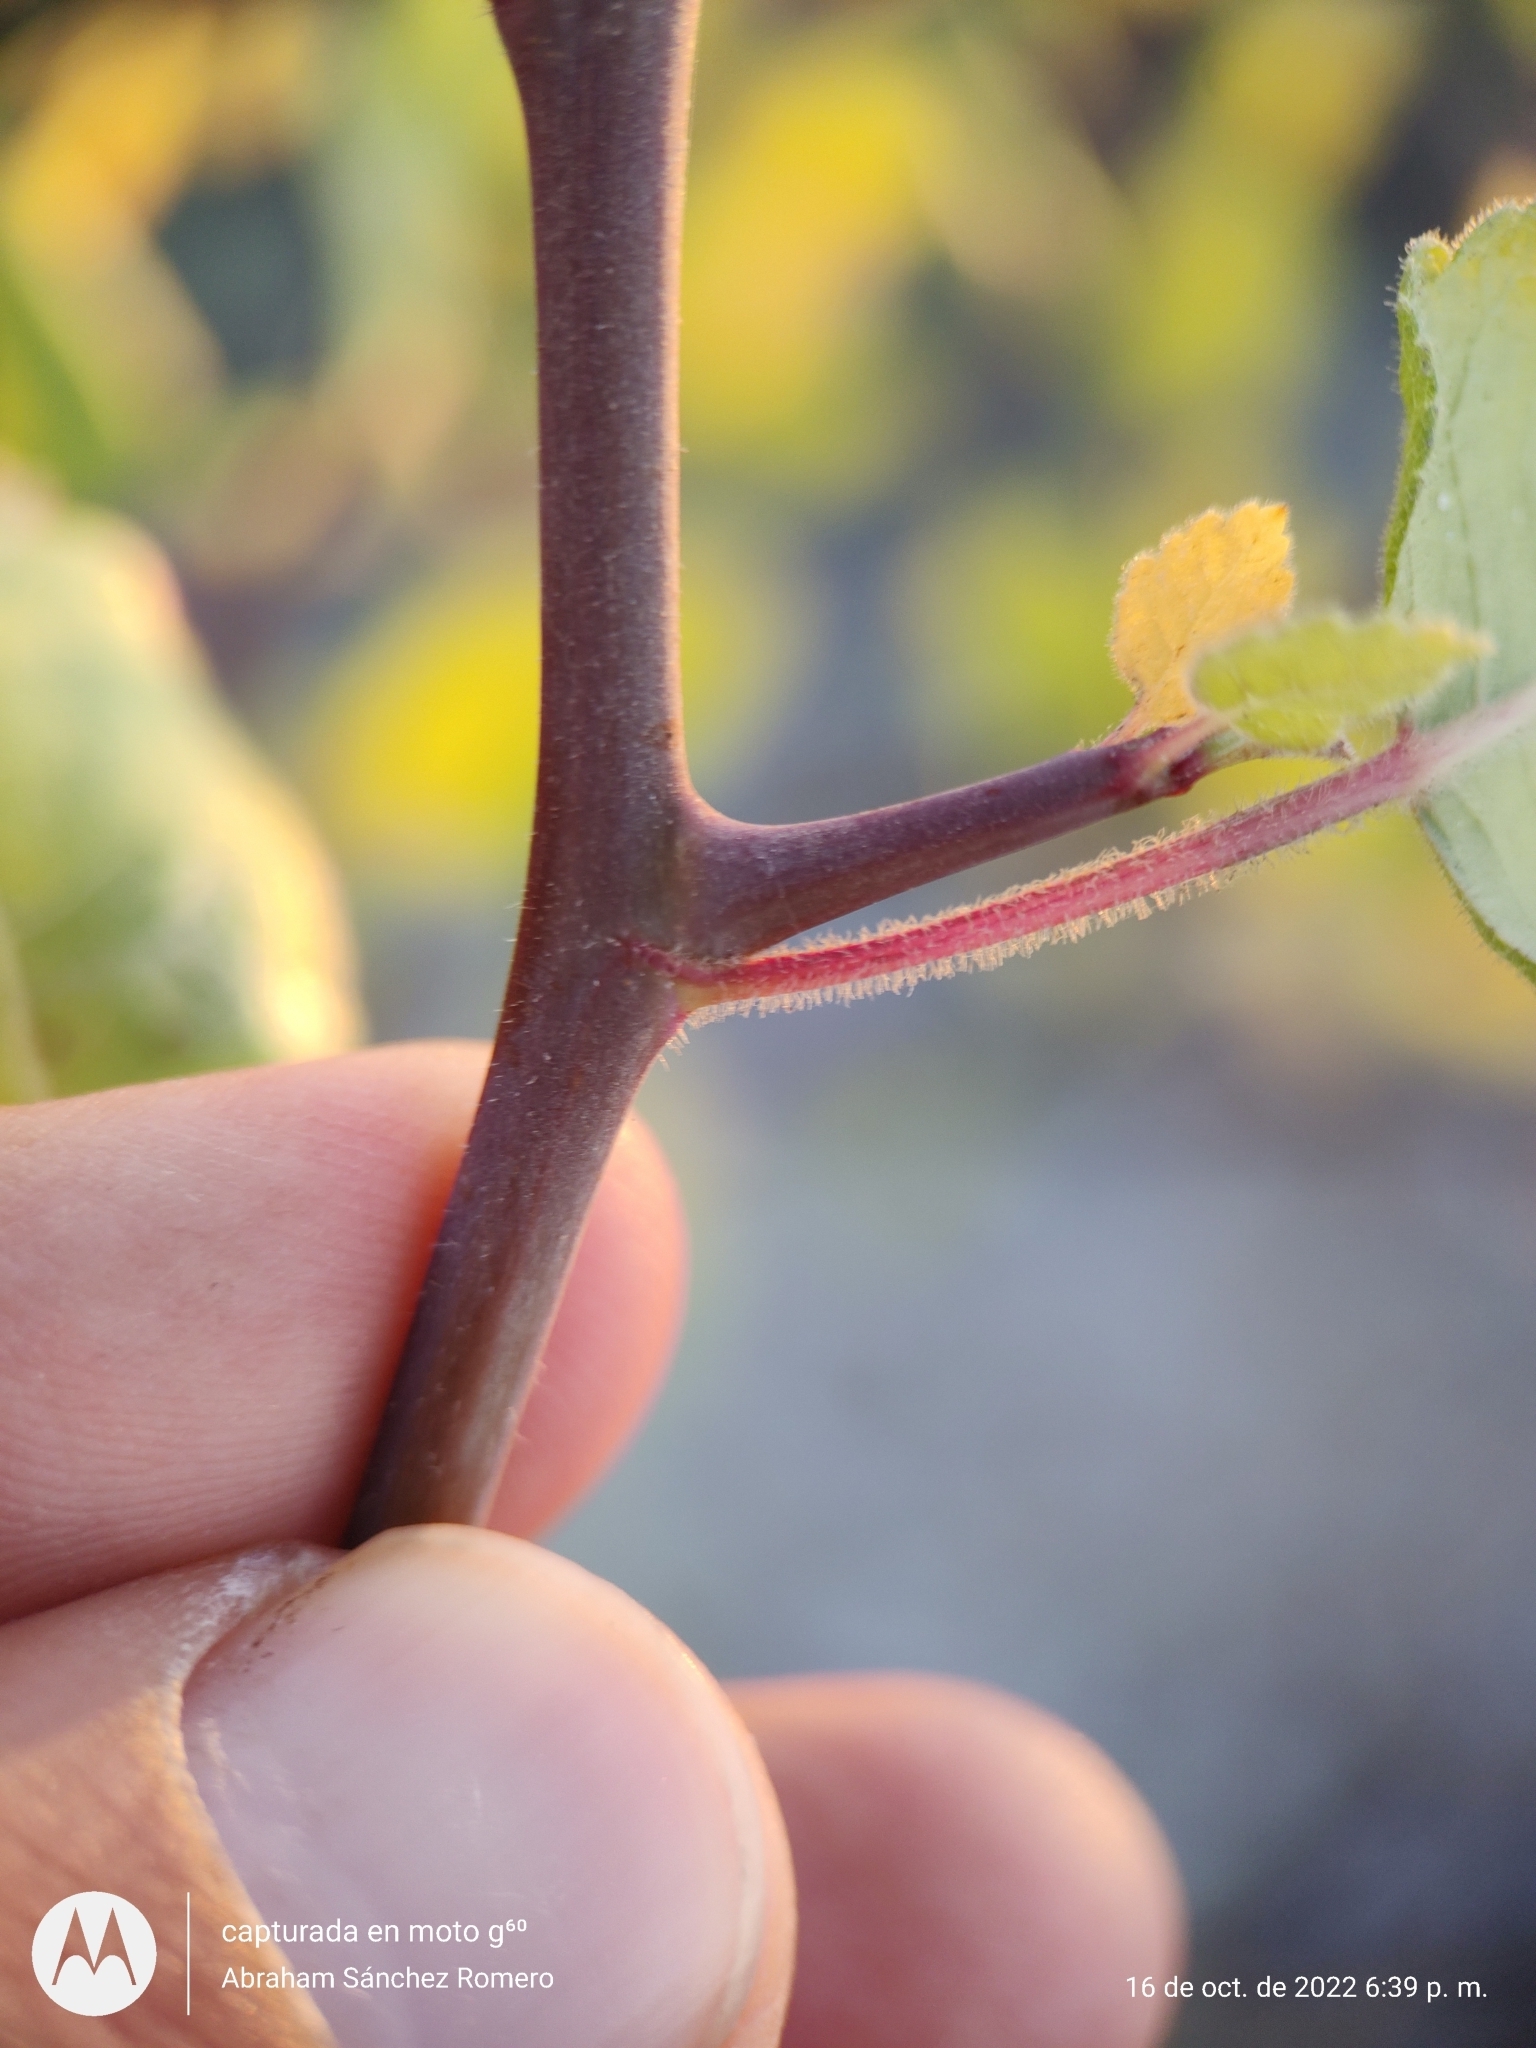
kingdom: Plantae
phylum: Tracheophyta
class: Magnoliopsida
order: Sapindales
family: Burseraceae
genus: Bursera
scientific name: Bursera epinnata
